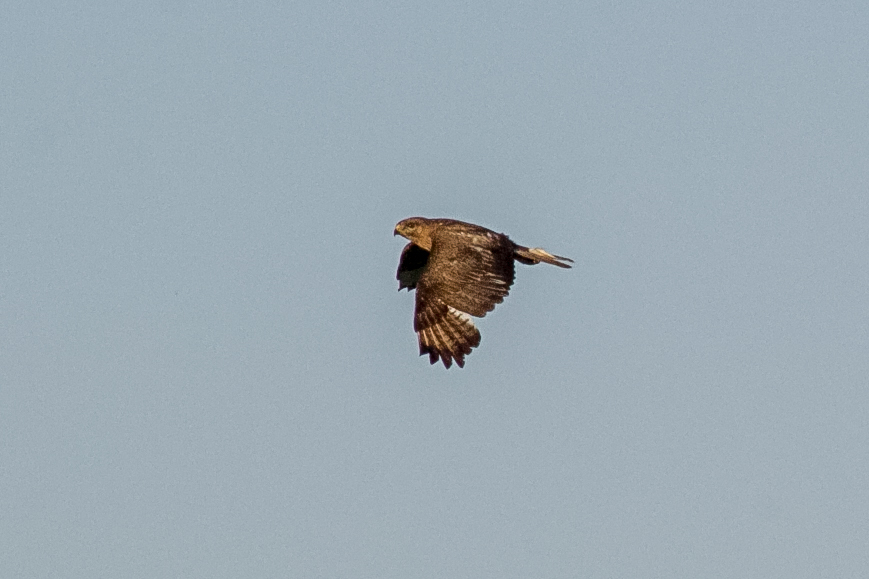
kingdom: Animalia
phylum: Chordata
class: Aves
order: Accipitriformes
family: Accipitridae
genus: Buteo
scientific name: Buteo buteo
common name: Common buzzard
